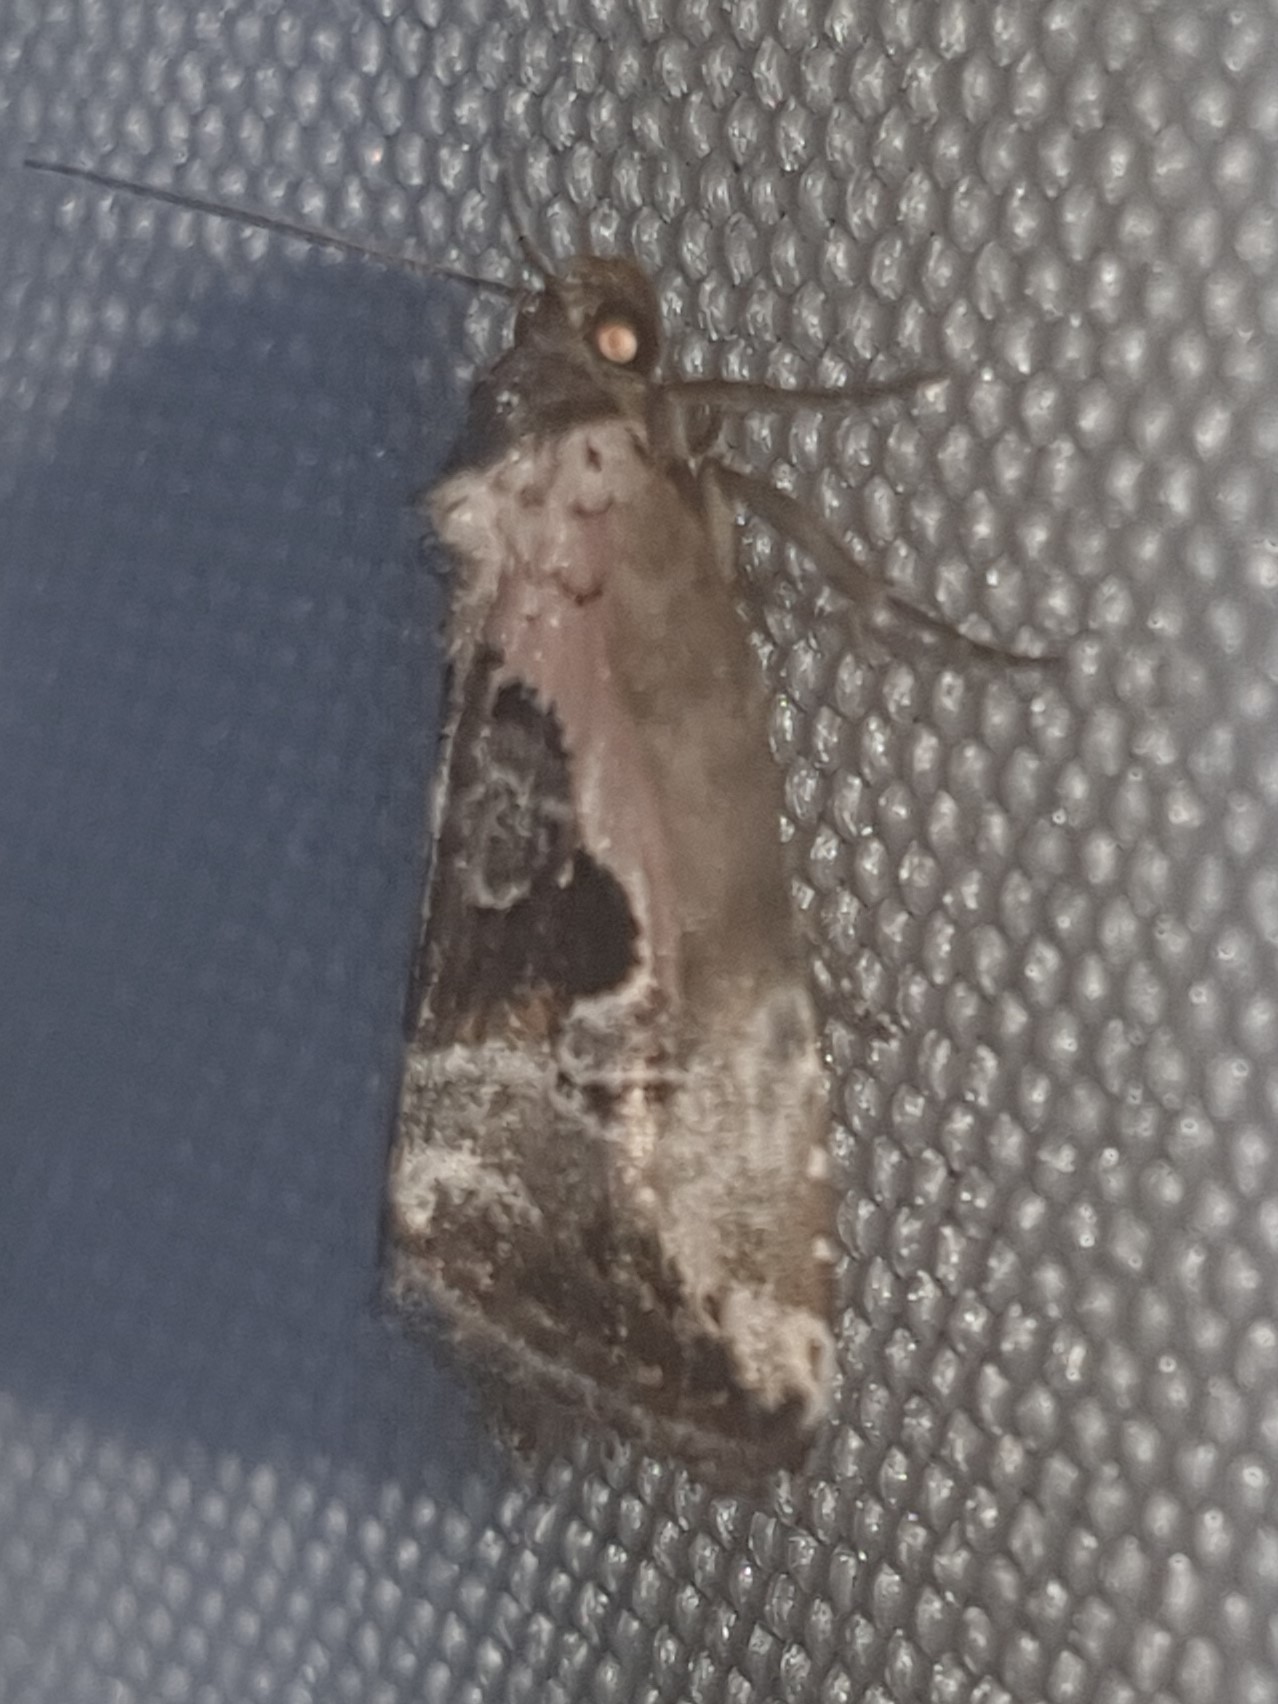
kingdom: Animalia
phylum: Arthropoda
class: Insecta
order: Lepidoptera
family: Noctuidae
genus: Elaphria
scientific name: Elaphria venustula
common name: Rosy marbled
